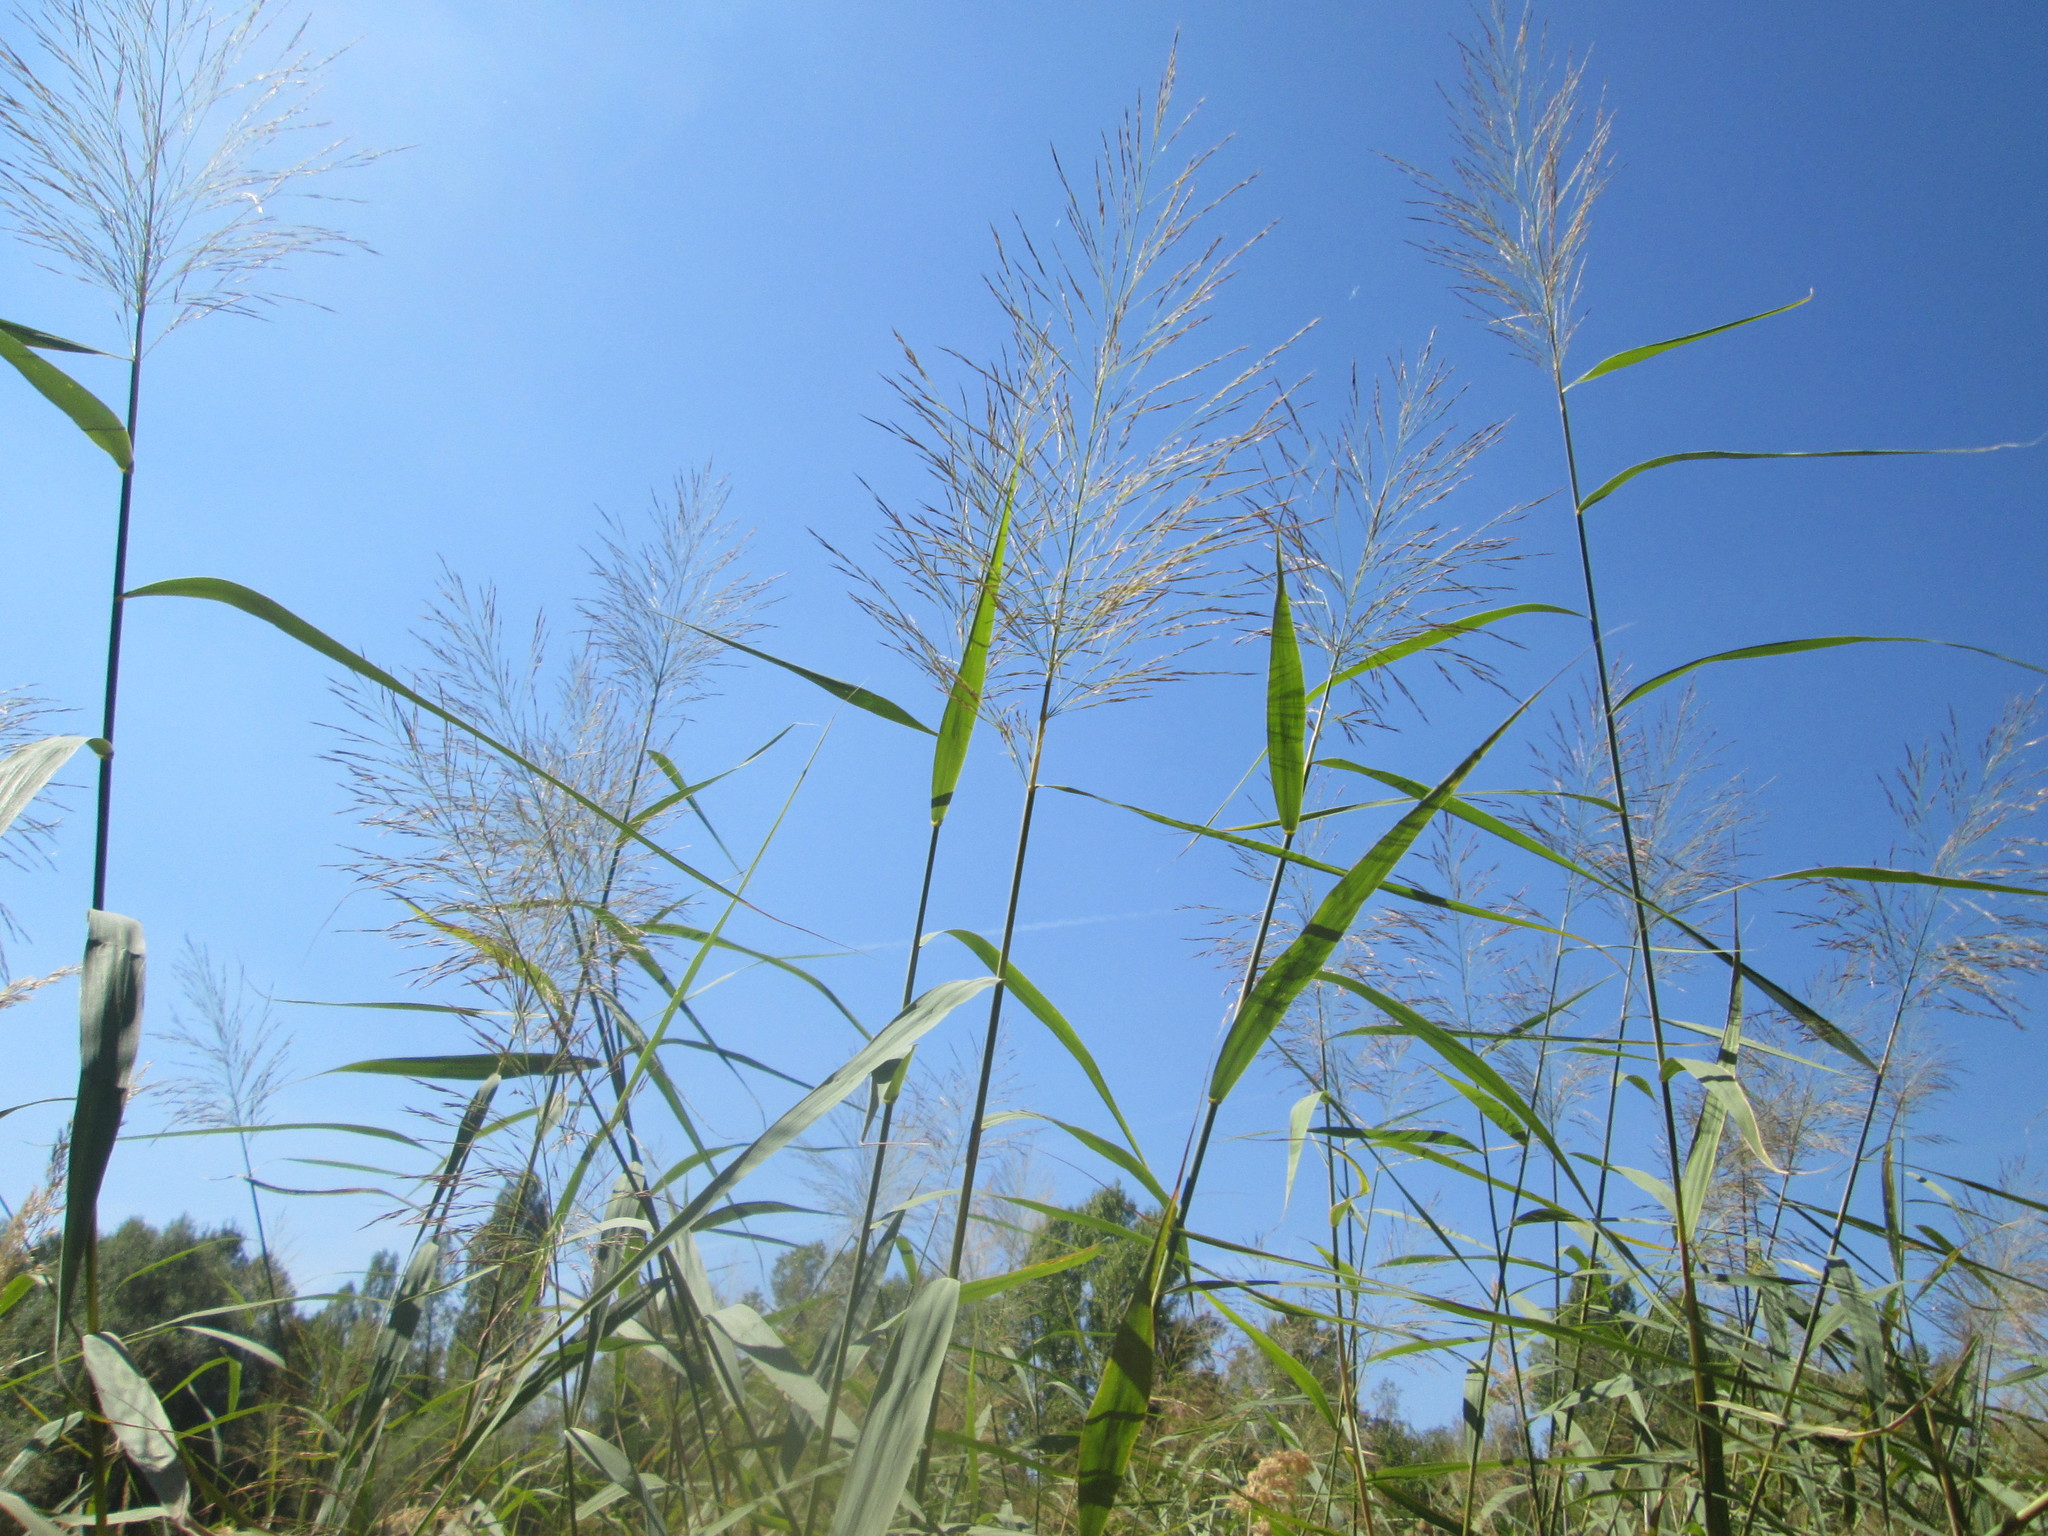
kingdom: Plantae
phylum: Tracheophyta
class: Liliopsida
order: Poales
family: Poaceae
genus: Phragmites
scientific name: Phragmites australis
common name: Common reed
